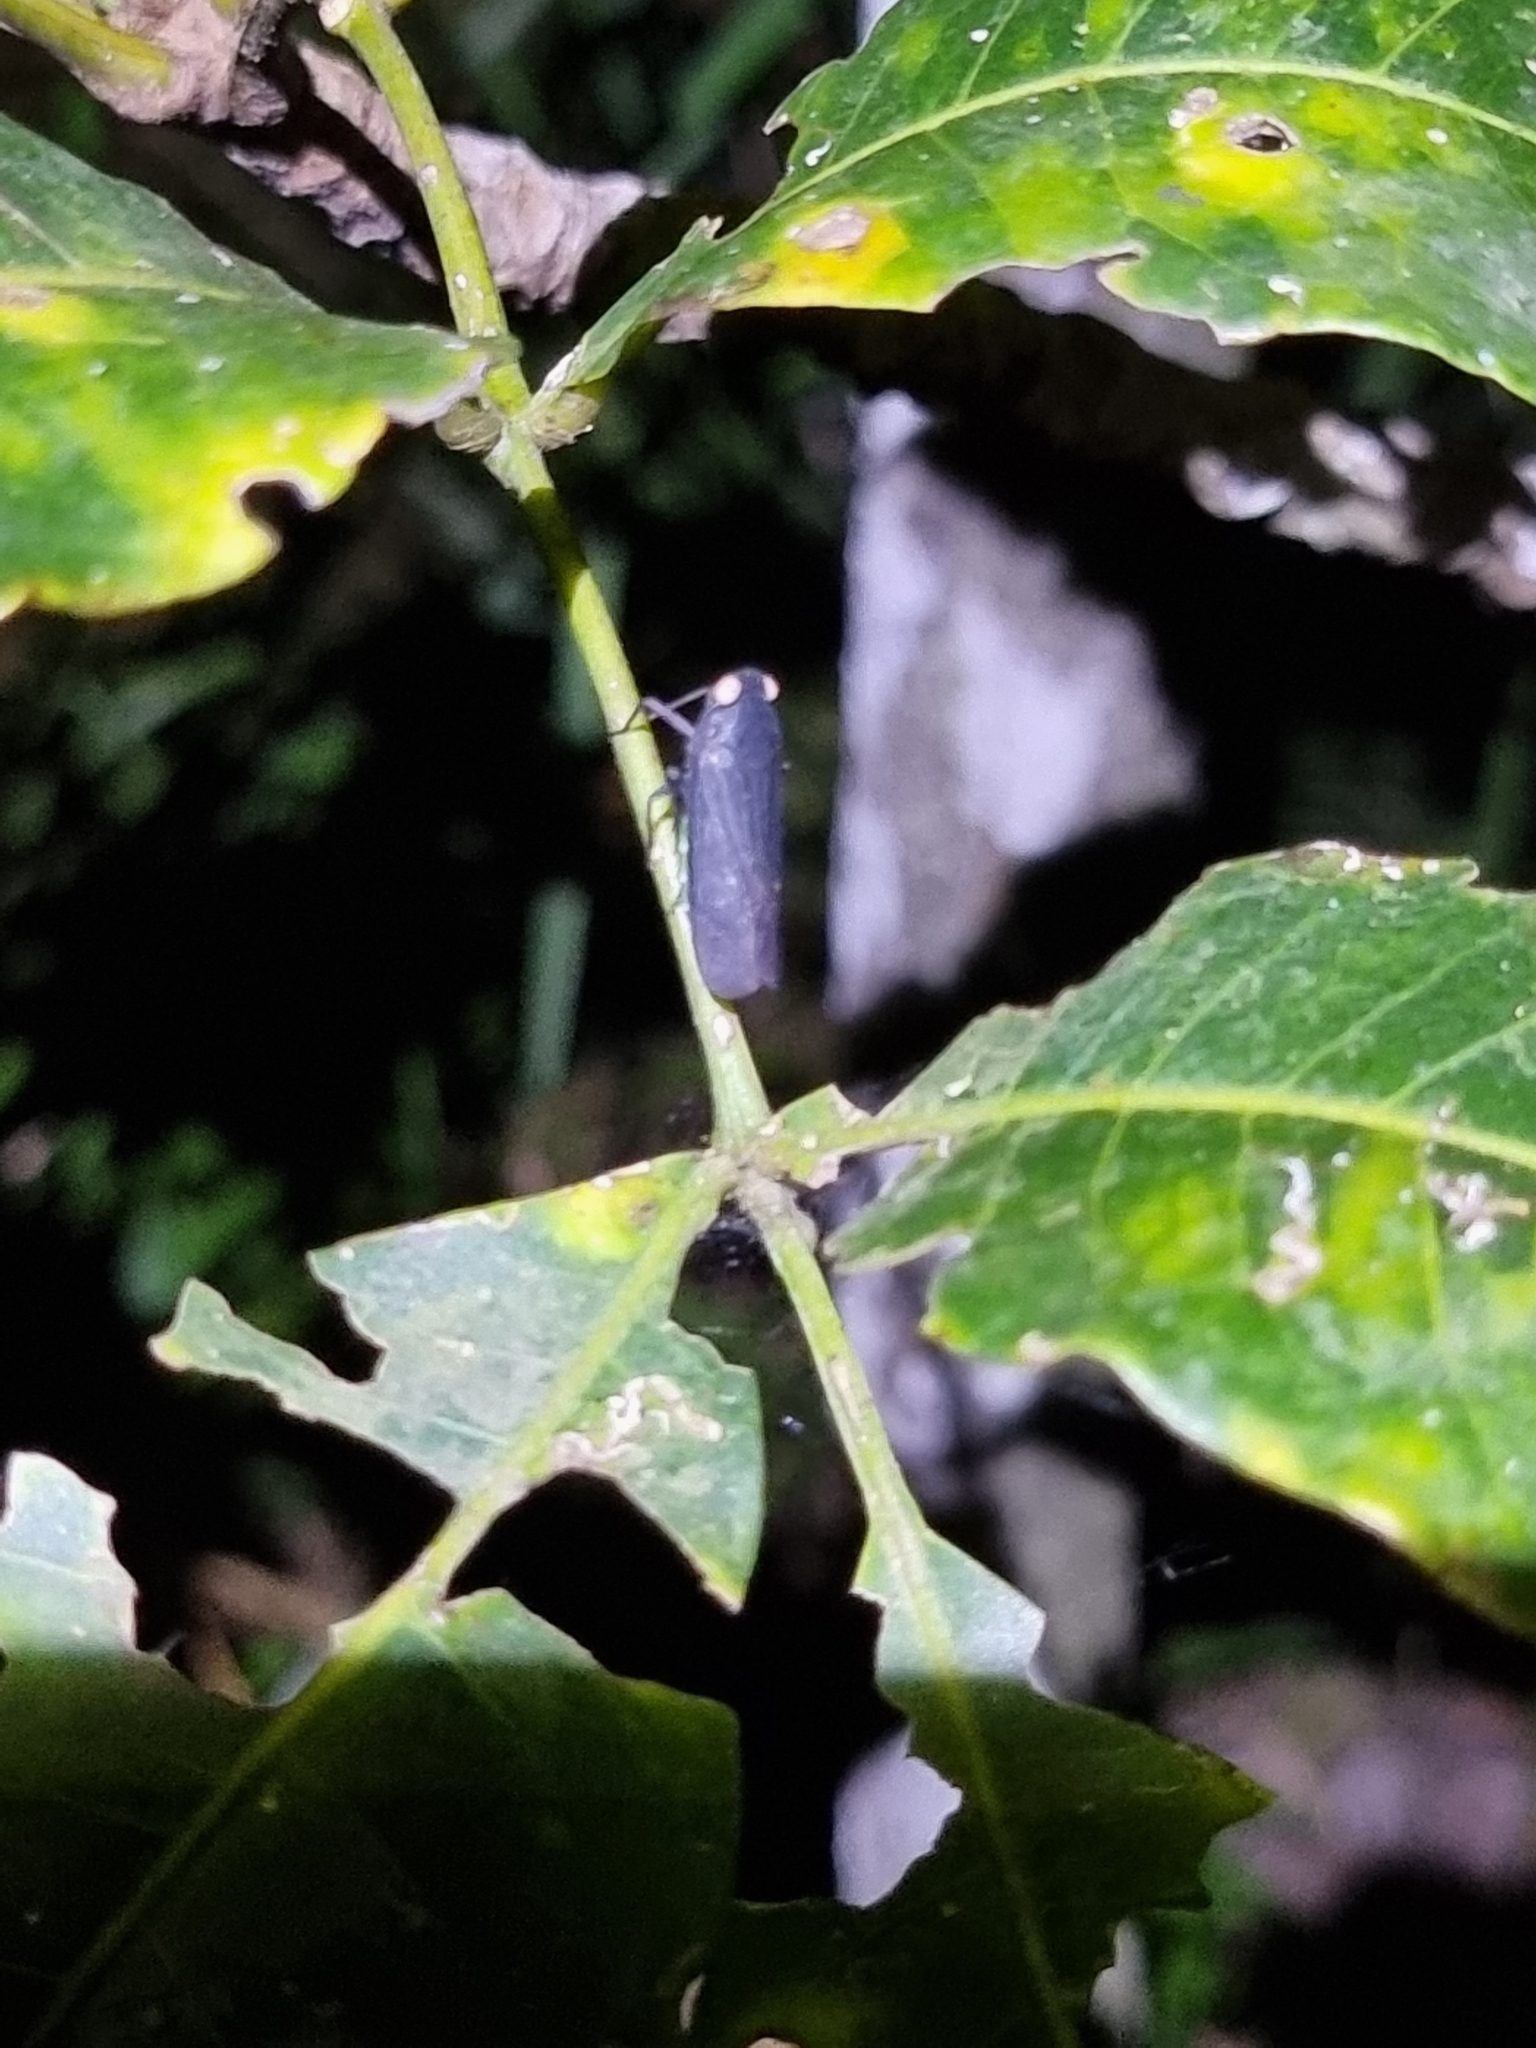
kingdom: Animalia
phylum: Arthropoda
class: Insecta
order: Hemiptera
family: Fulgoridae
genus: Desudaba
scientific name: Desudaba psittacus
